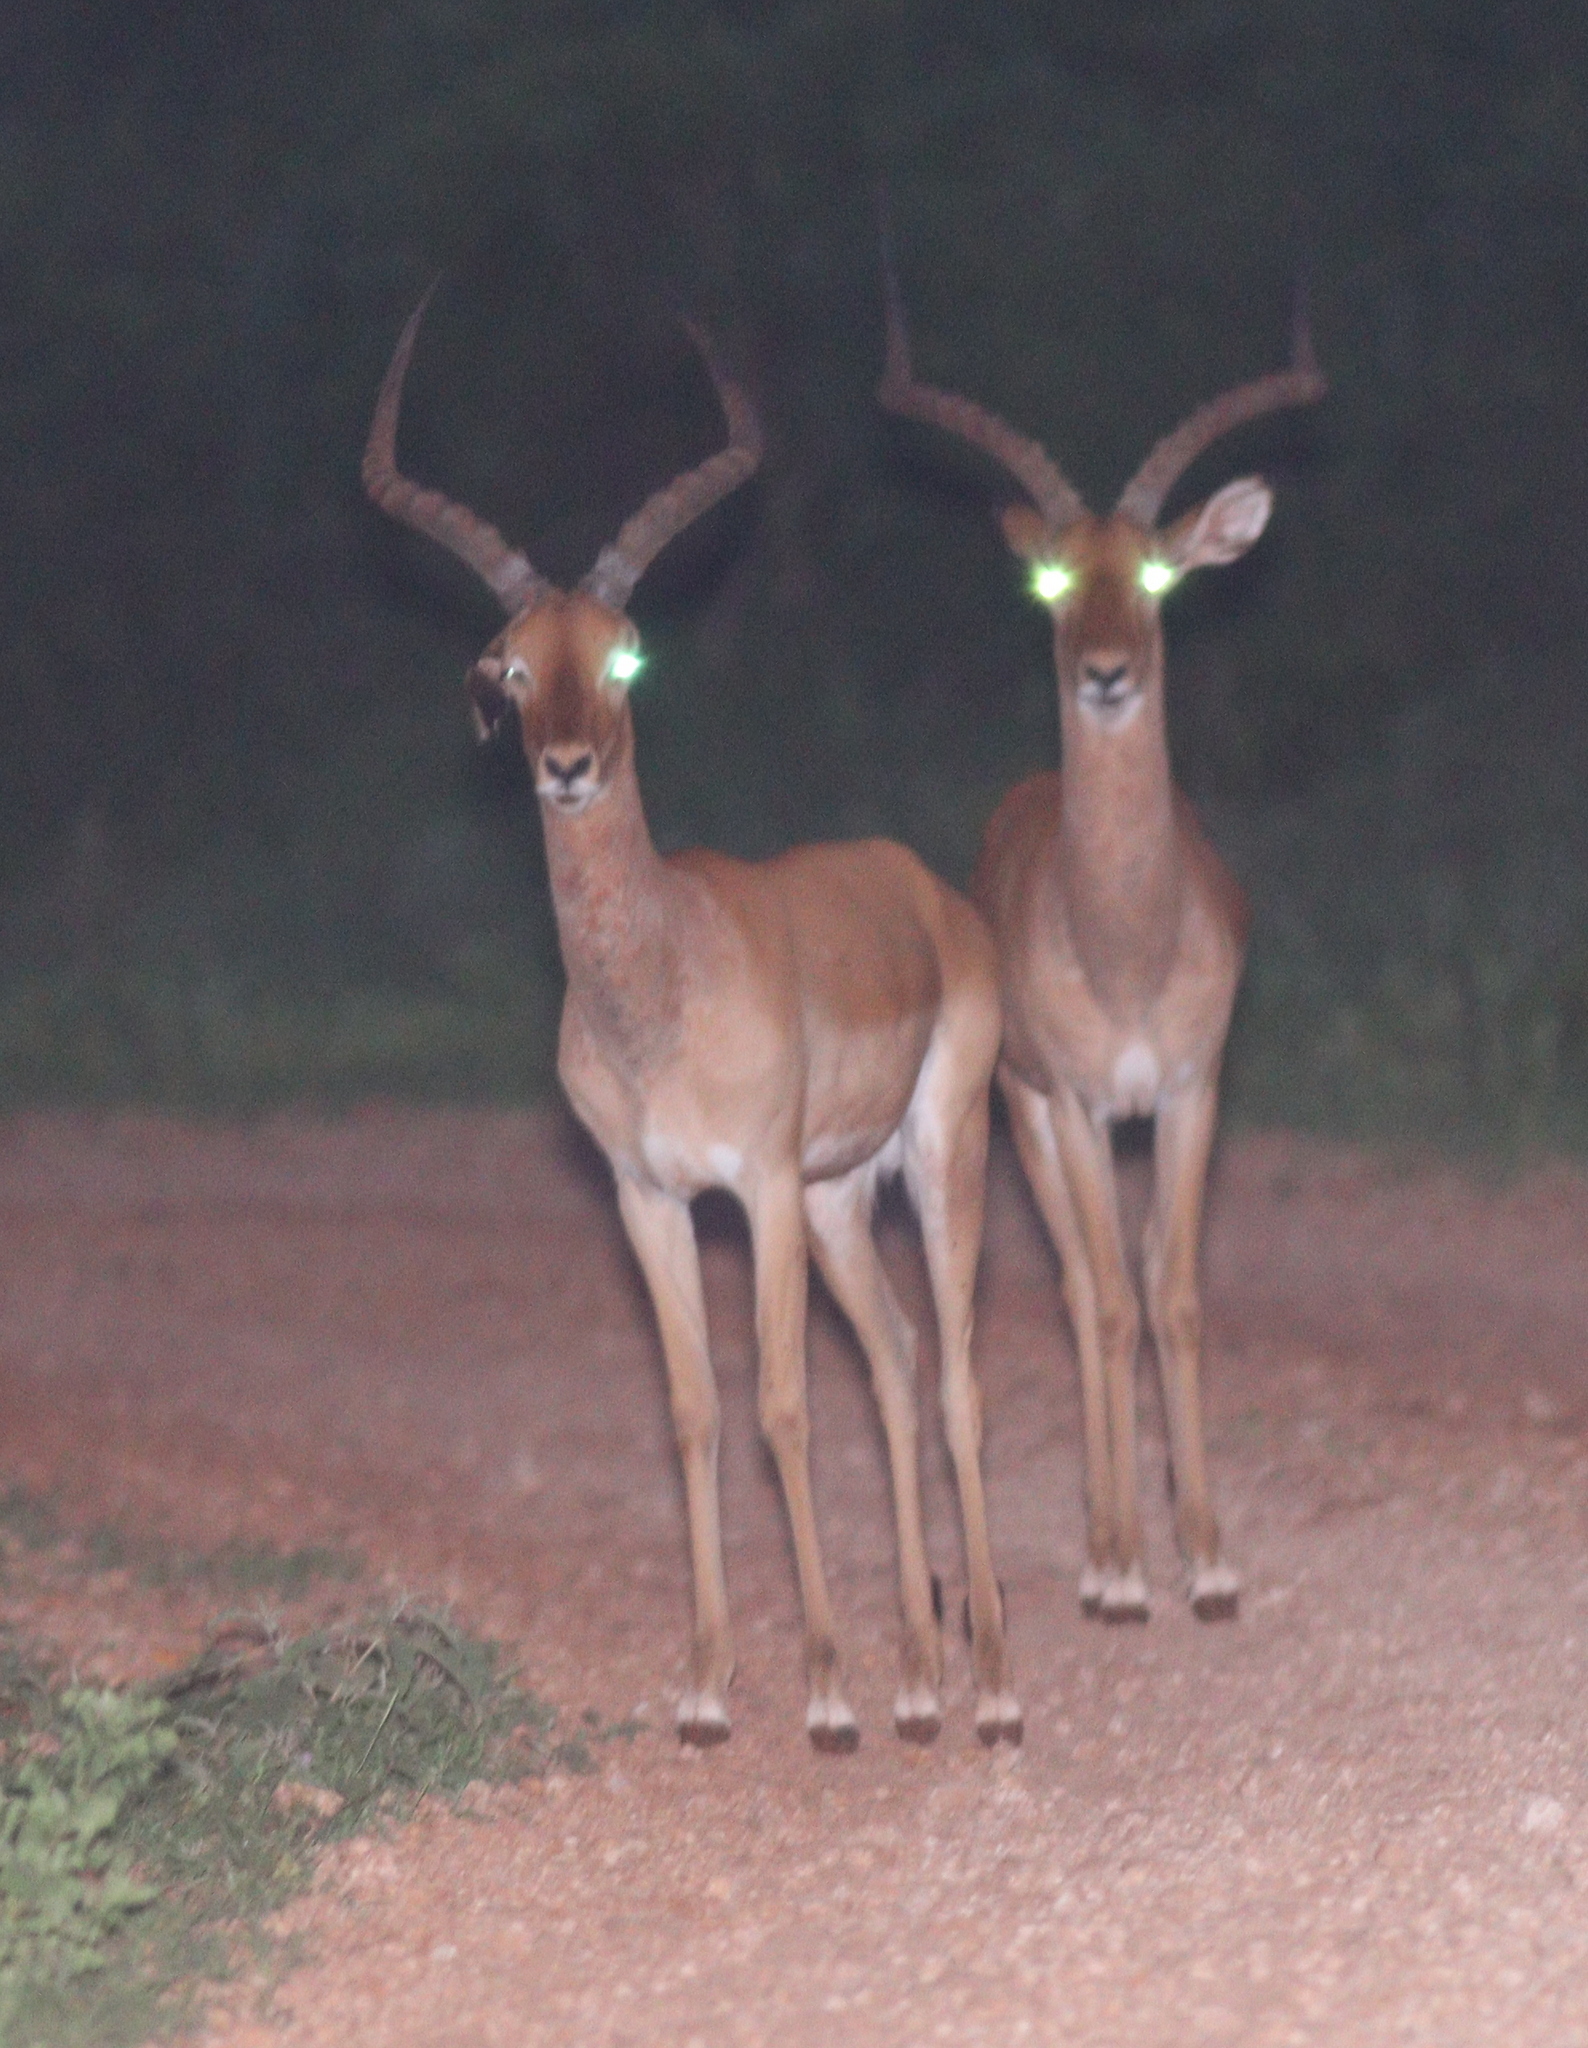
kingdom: Animalia
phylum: Chordata
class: Mammalia
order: Artiodactyla
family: Bovidae
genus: Aepyceros
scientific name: Aepyceros melampus
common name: Impala
